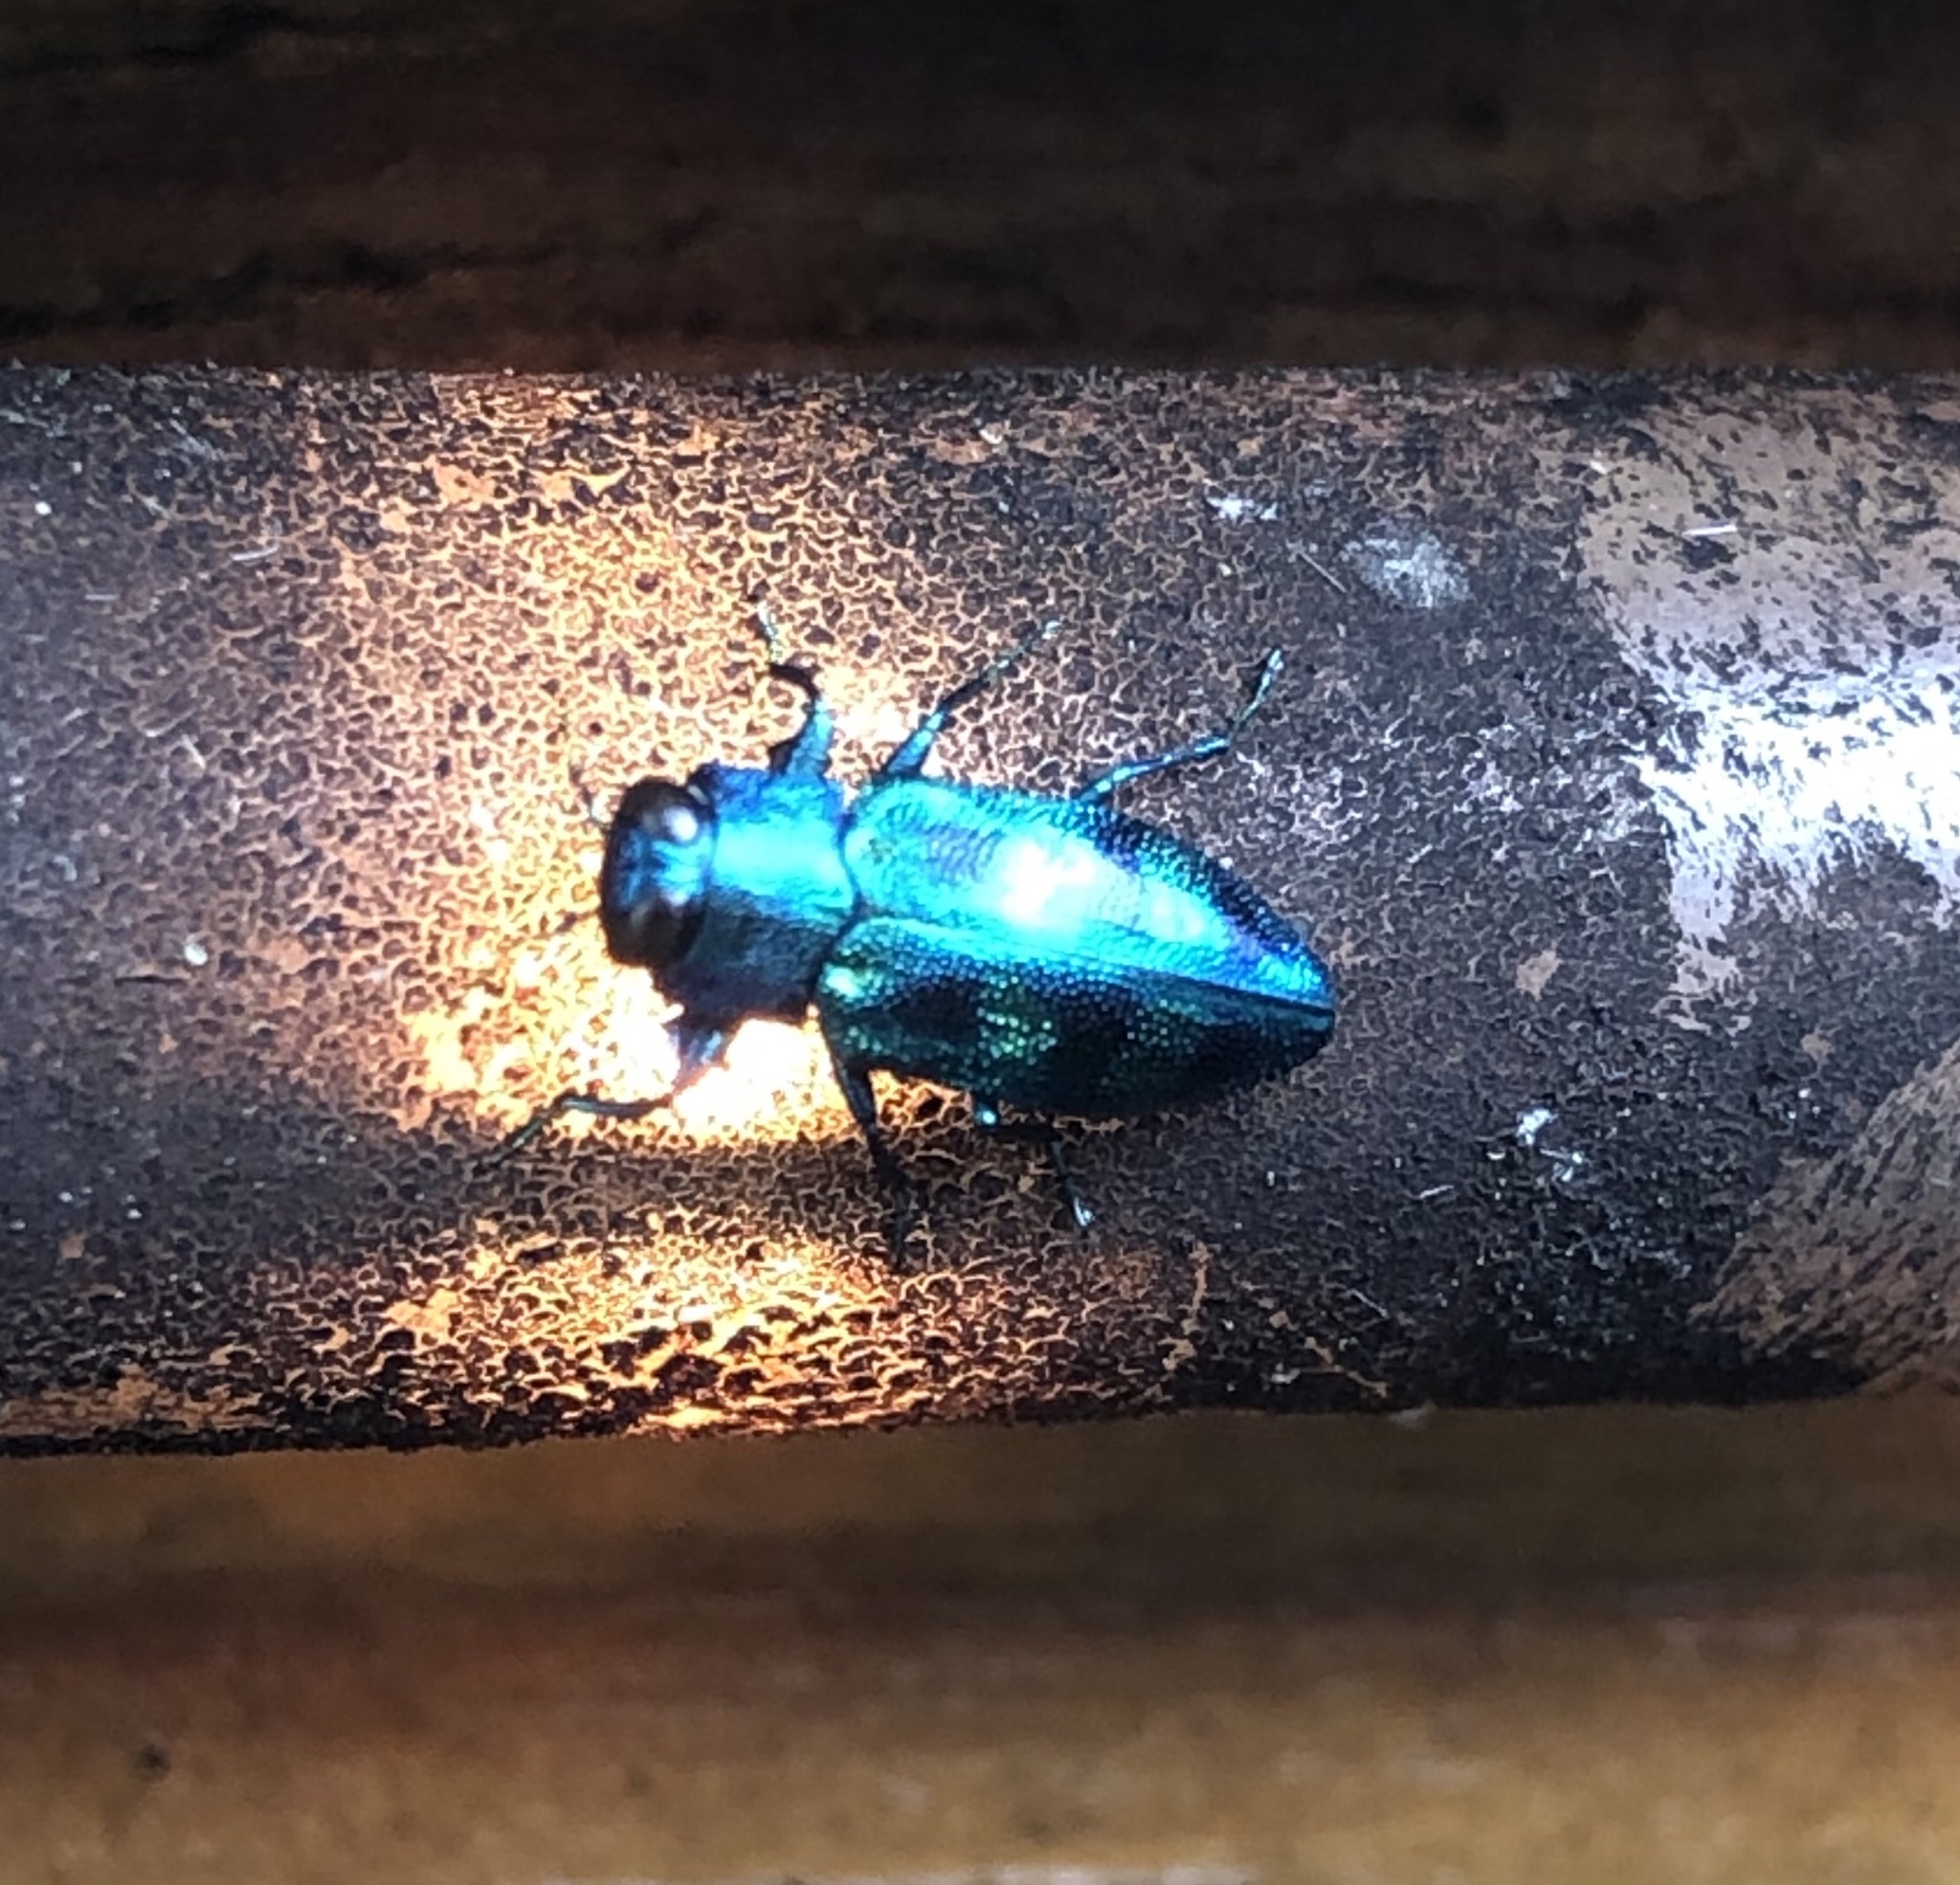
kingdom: Animalia
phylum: Arthropoda
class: Insecta
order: Coleoptera
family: Buprestidae
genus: Chrysobothris
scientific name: Chrysobothris scitula
